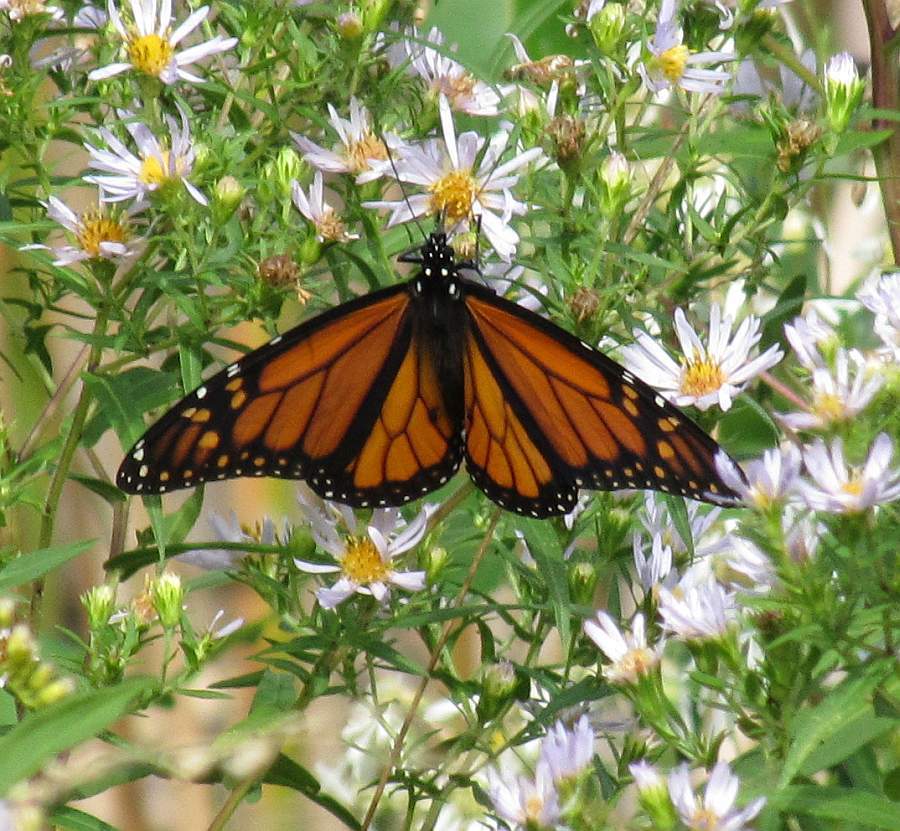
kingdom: Animalia
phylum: Arthropoda
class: Insecta
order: Lepidoptera
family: Nymphalidae
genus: Danaus
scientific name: Danaus plexippus
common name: Monarch
